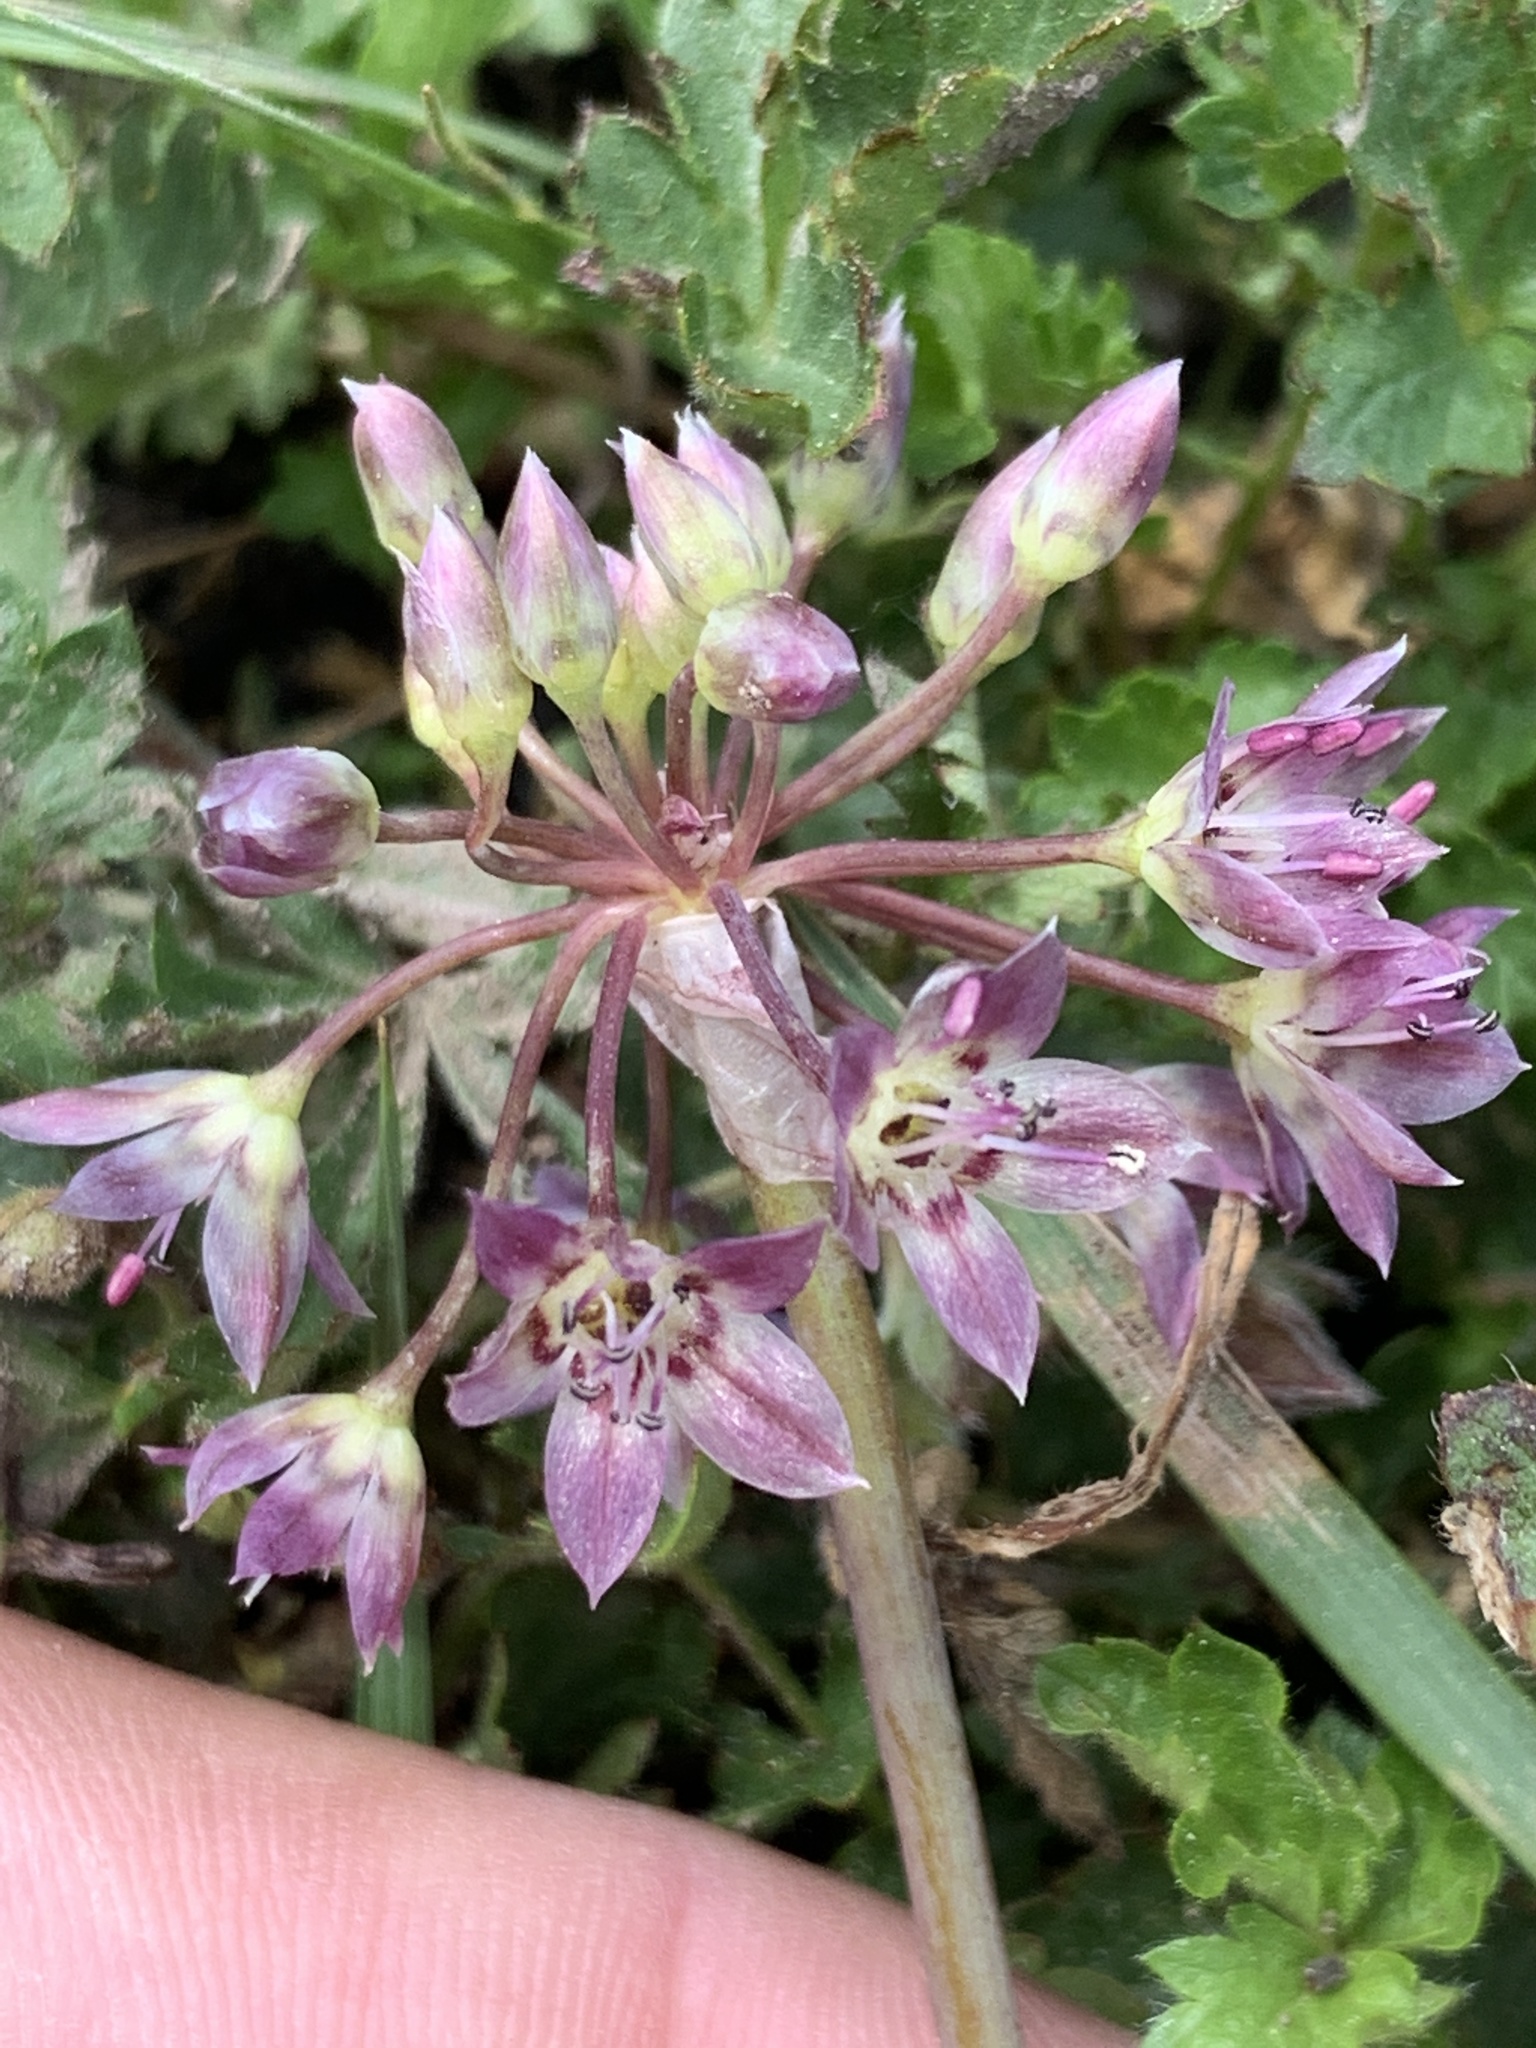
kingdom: Plantae
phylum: Tracheophyta
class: Liliopsida
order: Asparagales
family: Amaryllidaceae
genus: Allium
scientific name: Allium campanulatum
